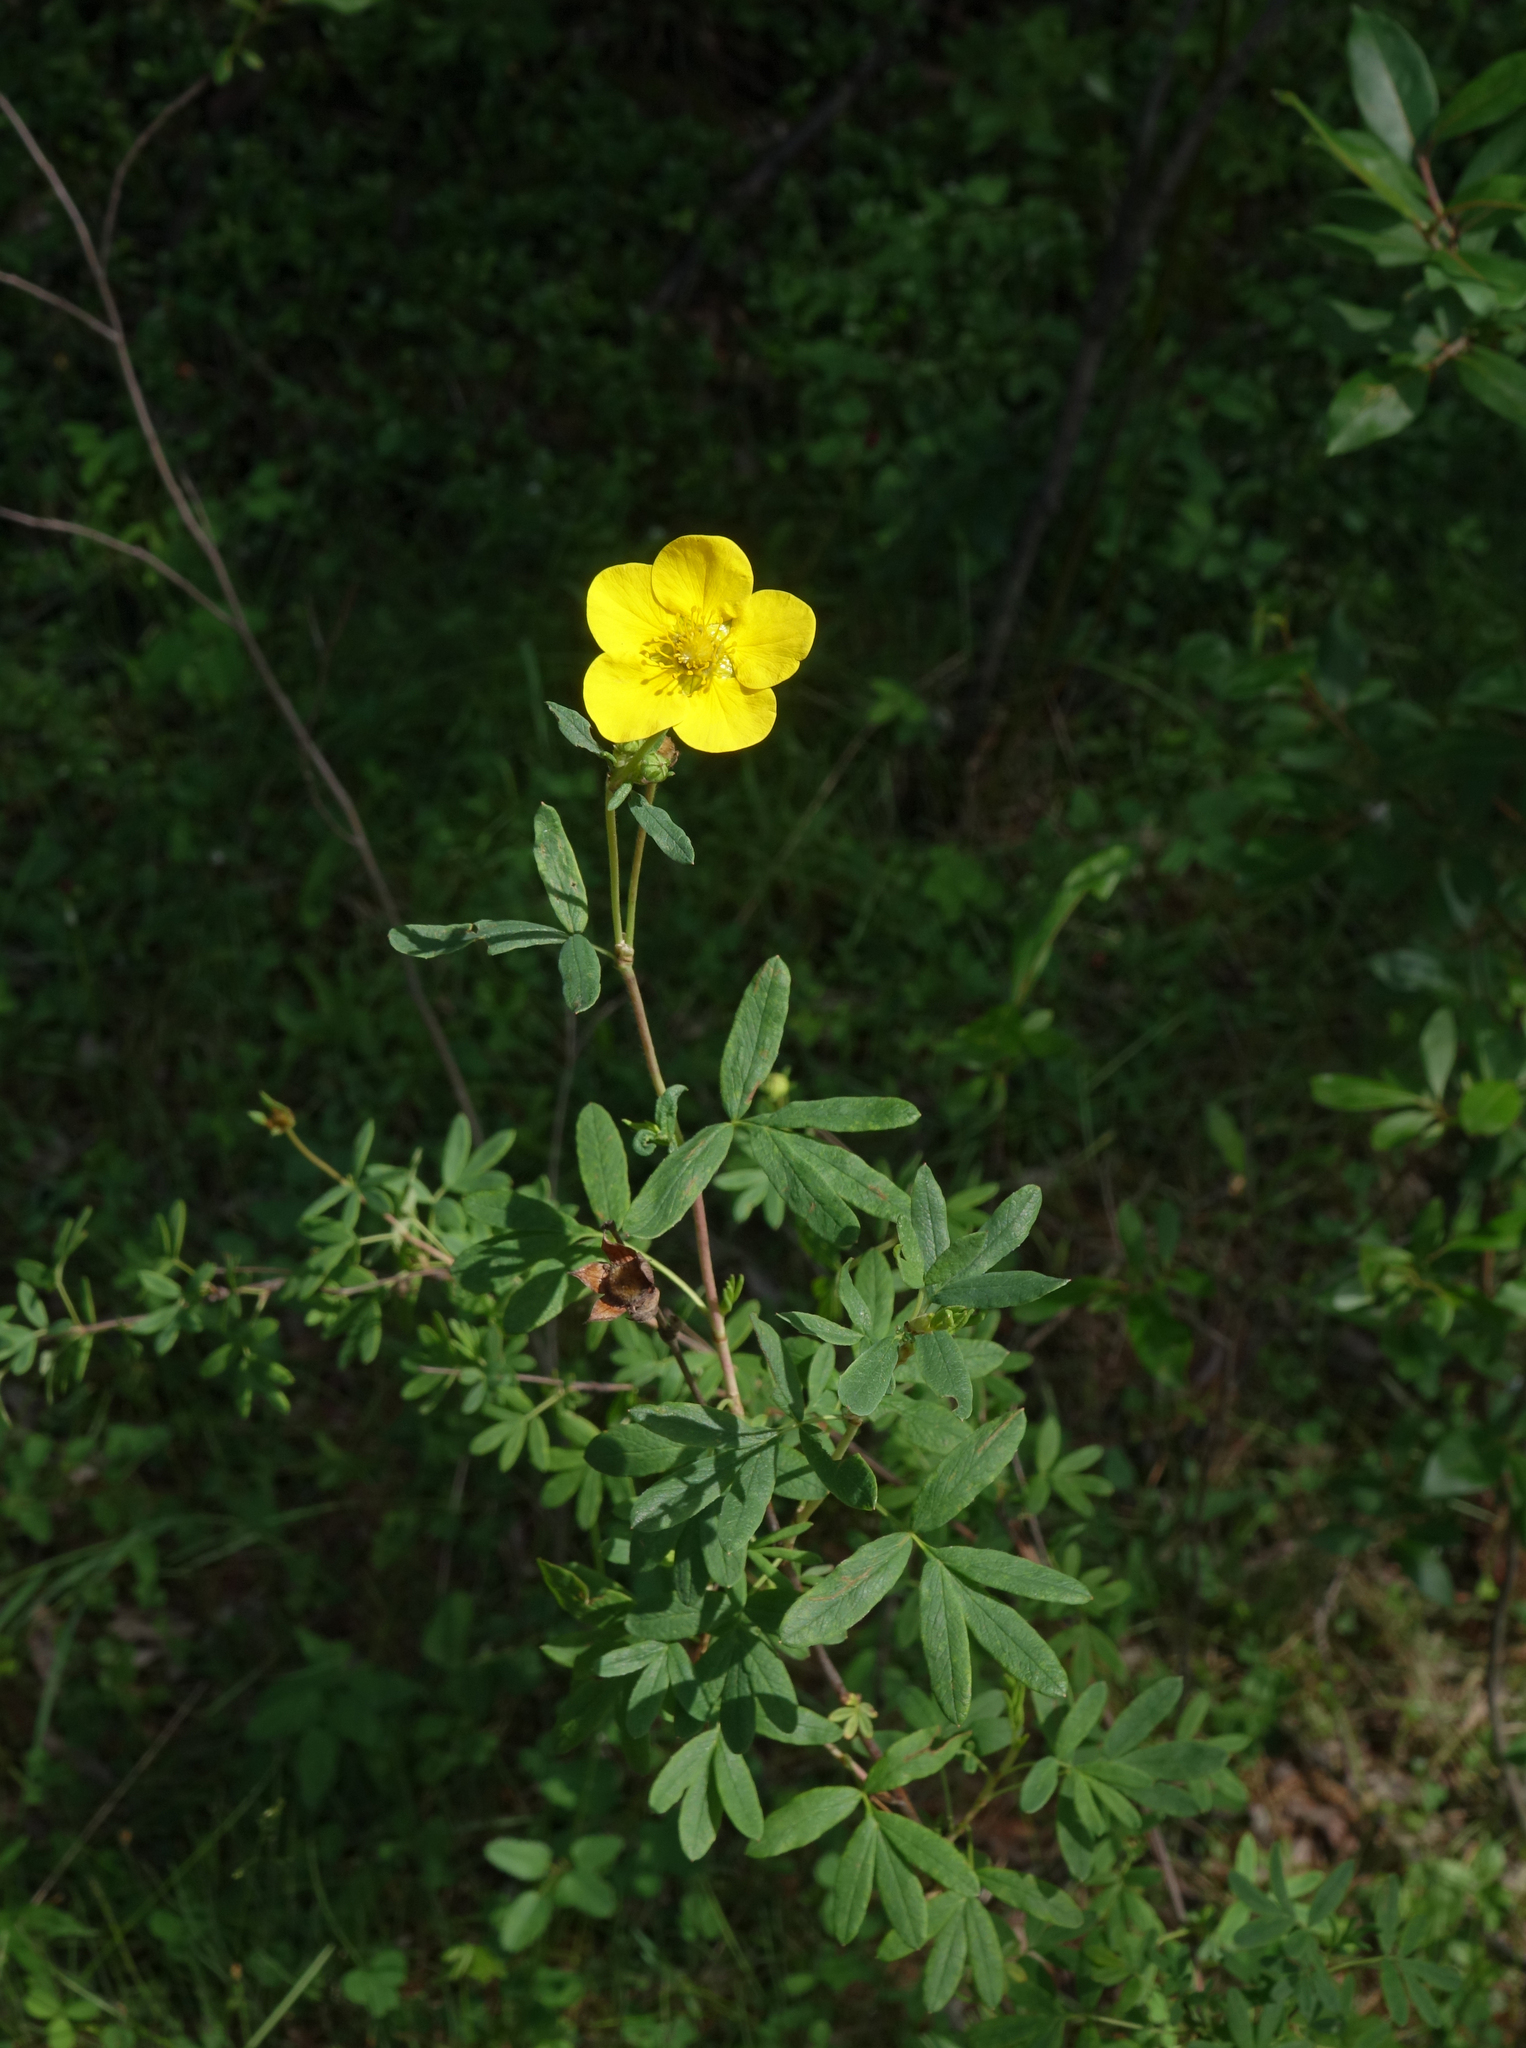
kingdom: Plantae
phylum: Tracheophyta
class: Magnoliopsida
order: Rosales
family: Rosaceae
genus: Dasiphora
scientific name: Dasiphora fruticosa
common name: Shrubby cinquefoil
